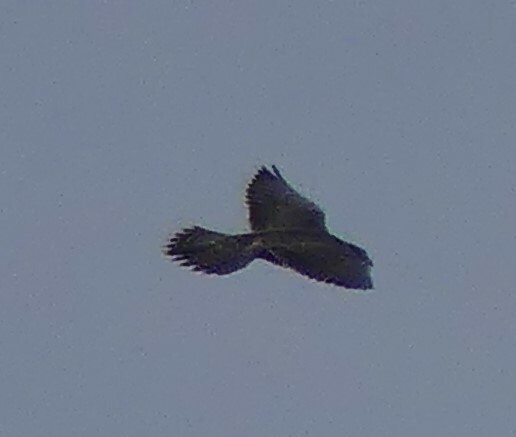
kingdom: Animalia
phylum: Chordata
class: Aves
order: Falconiformes
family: Falconidae
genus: Falco
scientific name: Falco peregrinus
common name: Peregrine falcon
